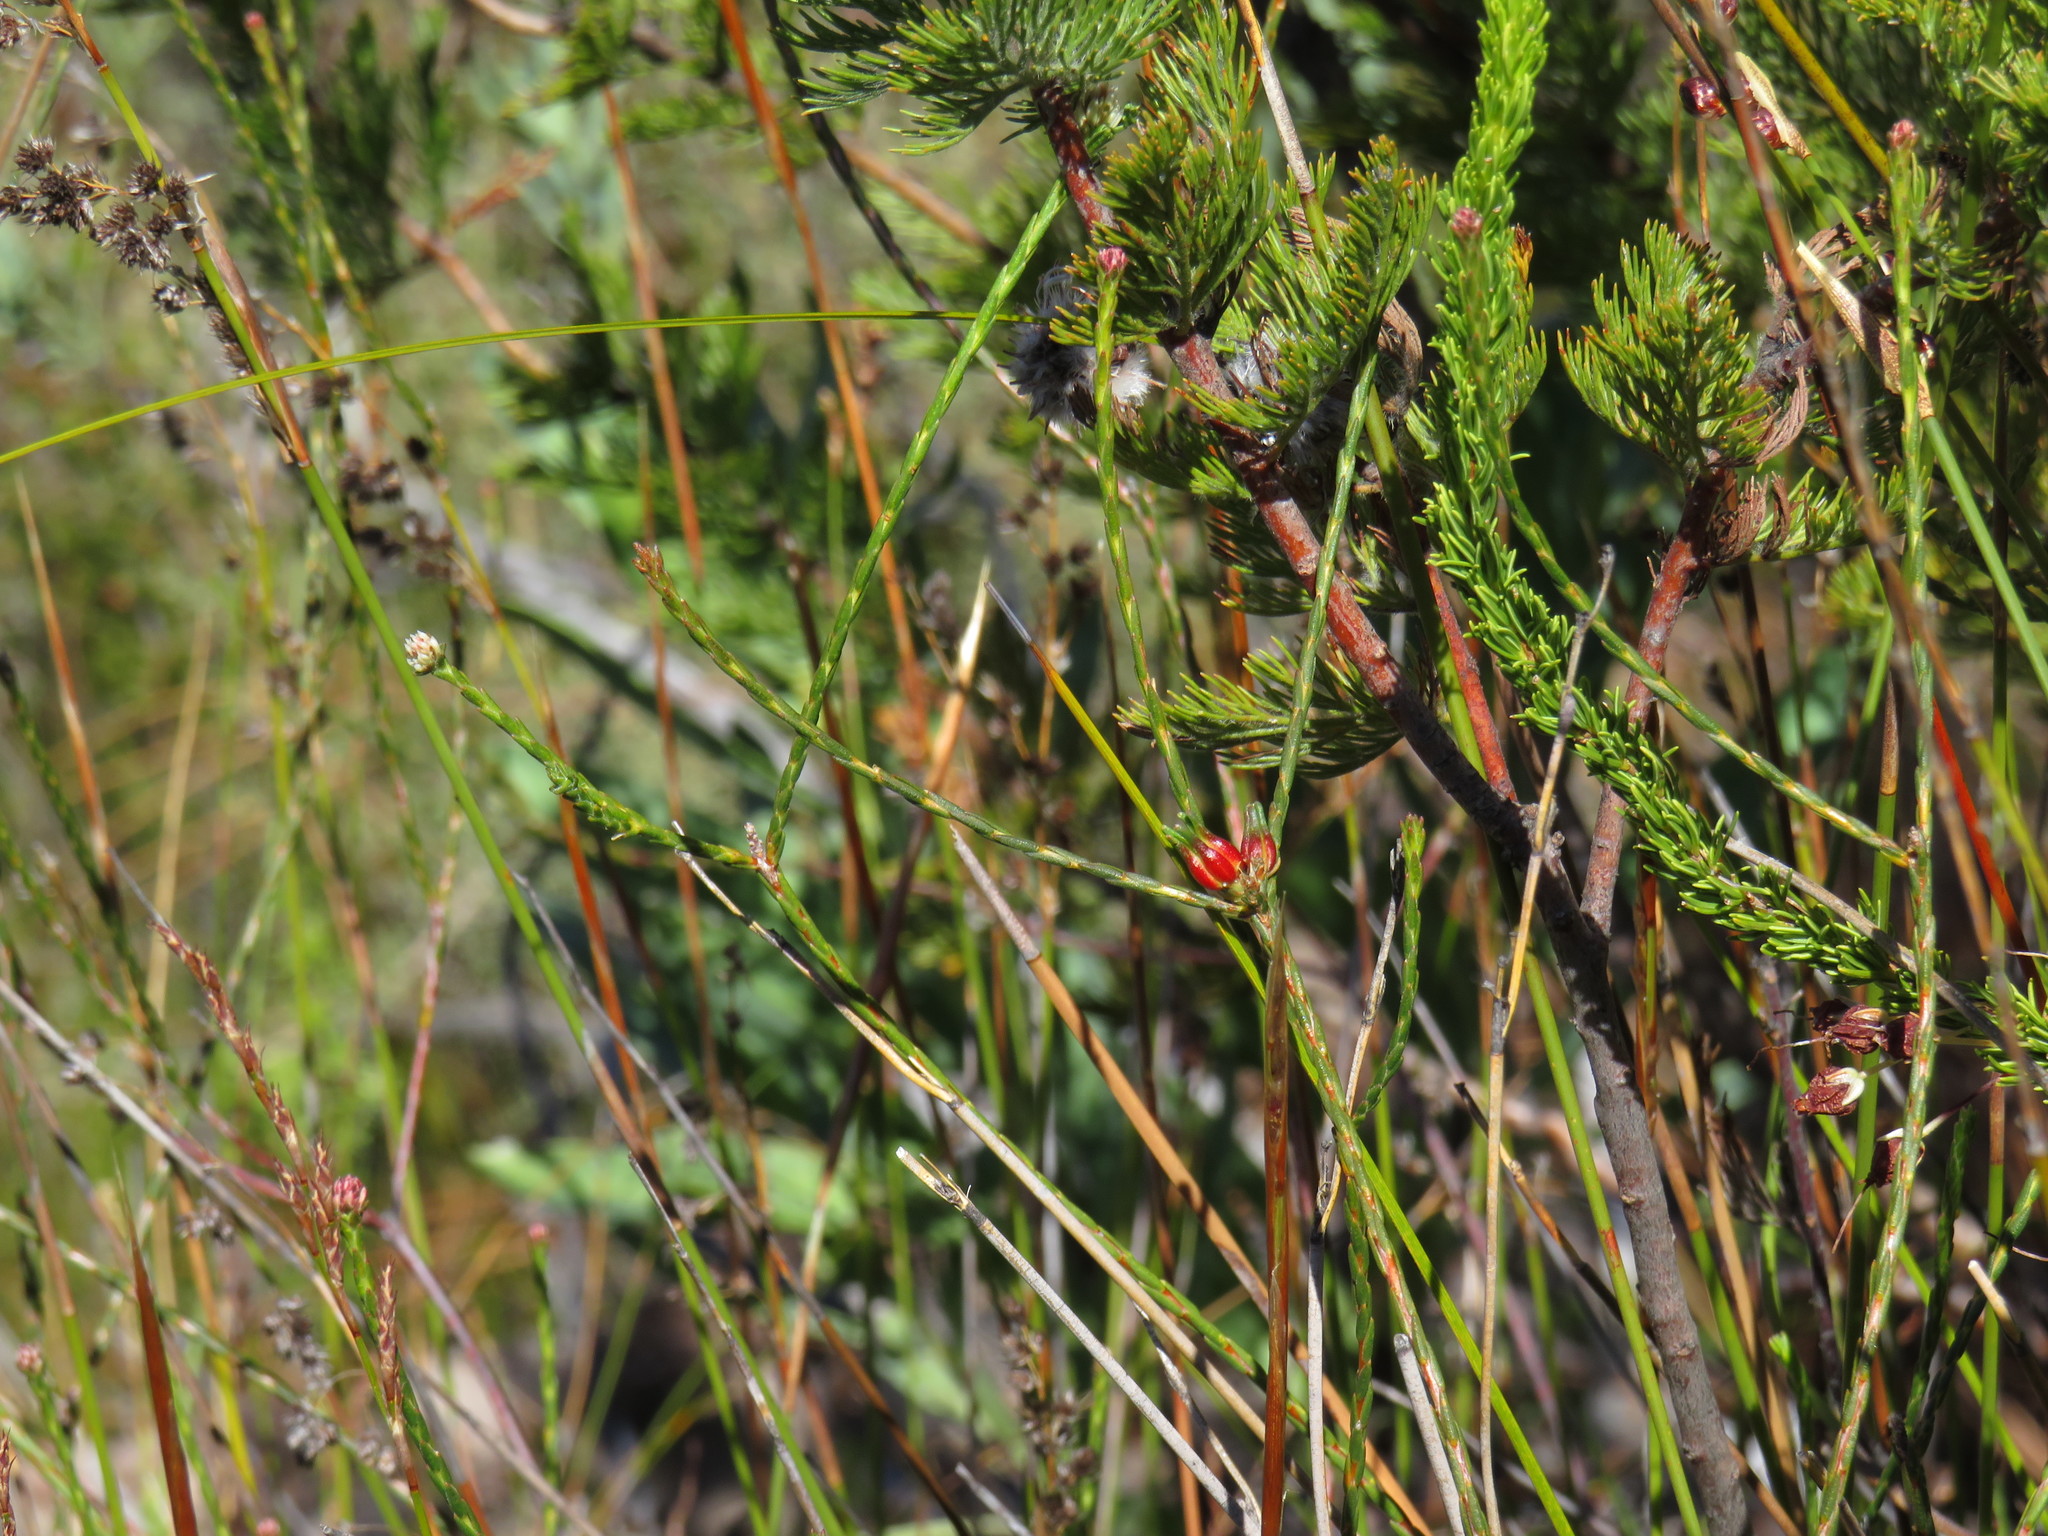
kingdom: Plantae
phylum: Tracheophyta
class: Magnoliopsida
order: Ericales
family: Ericaceae
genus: Erica
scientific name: Erica plukenetii
